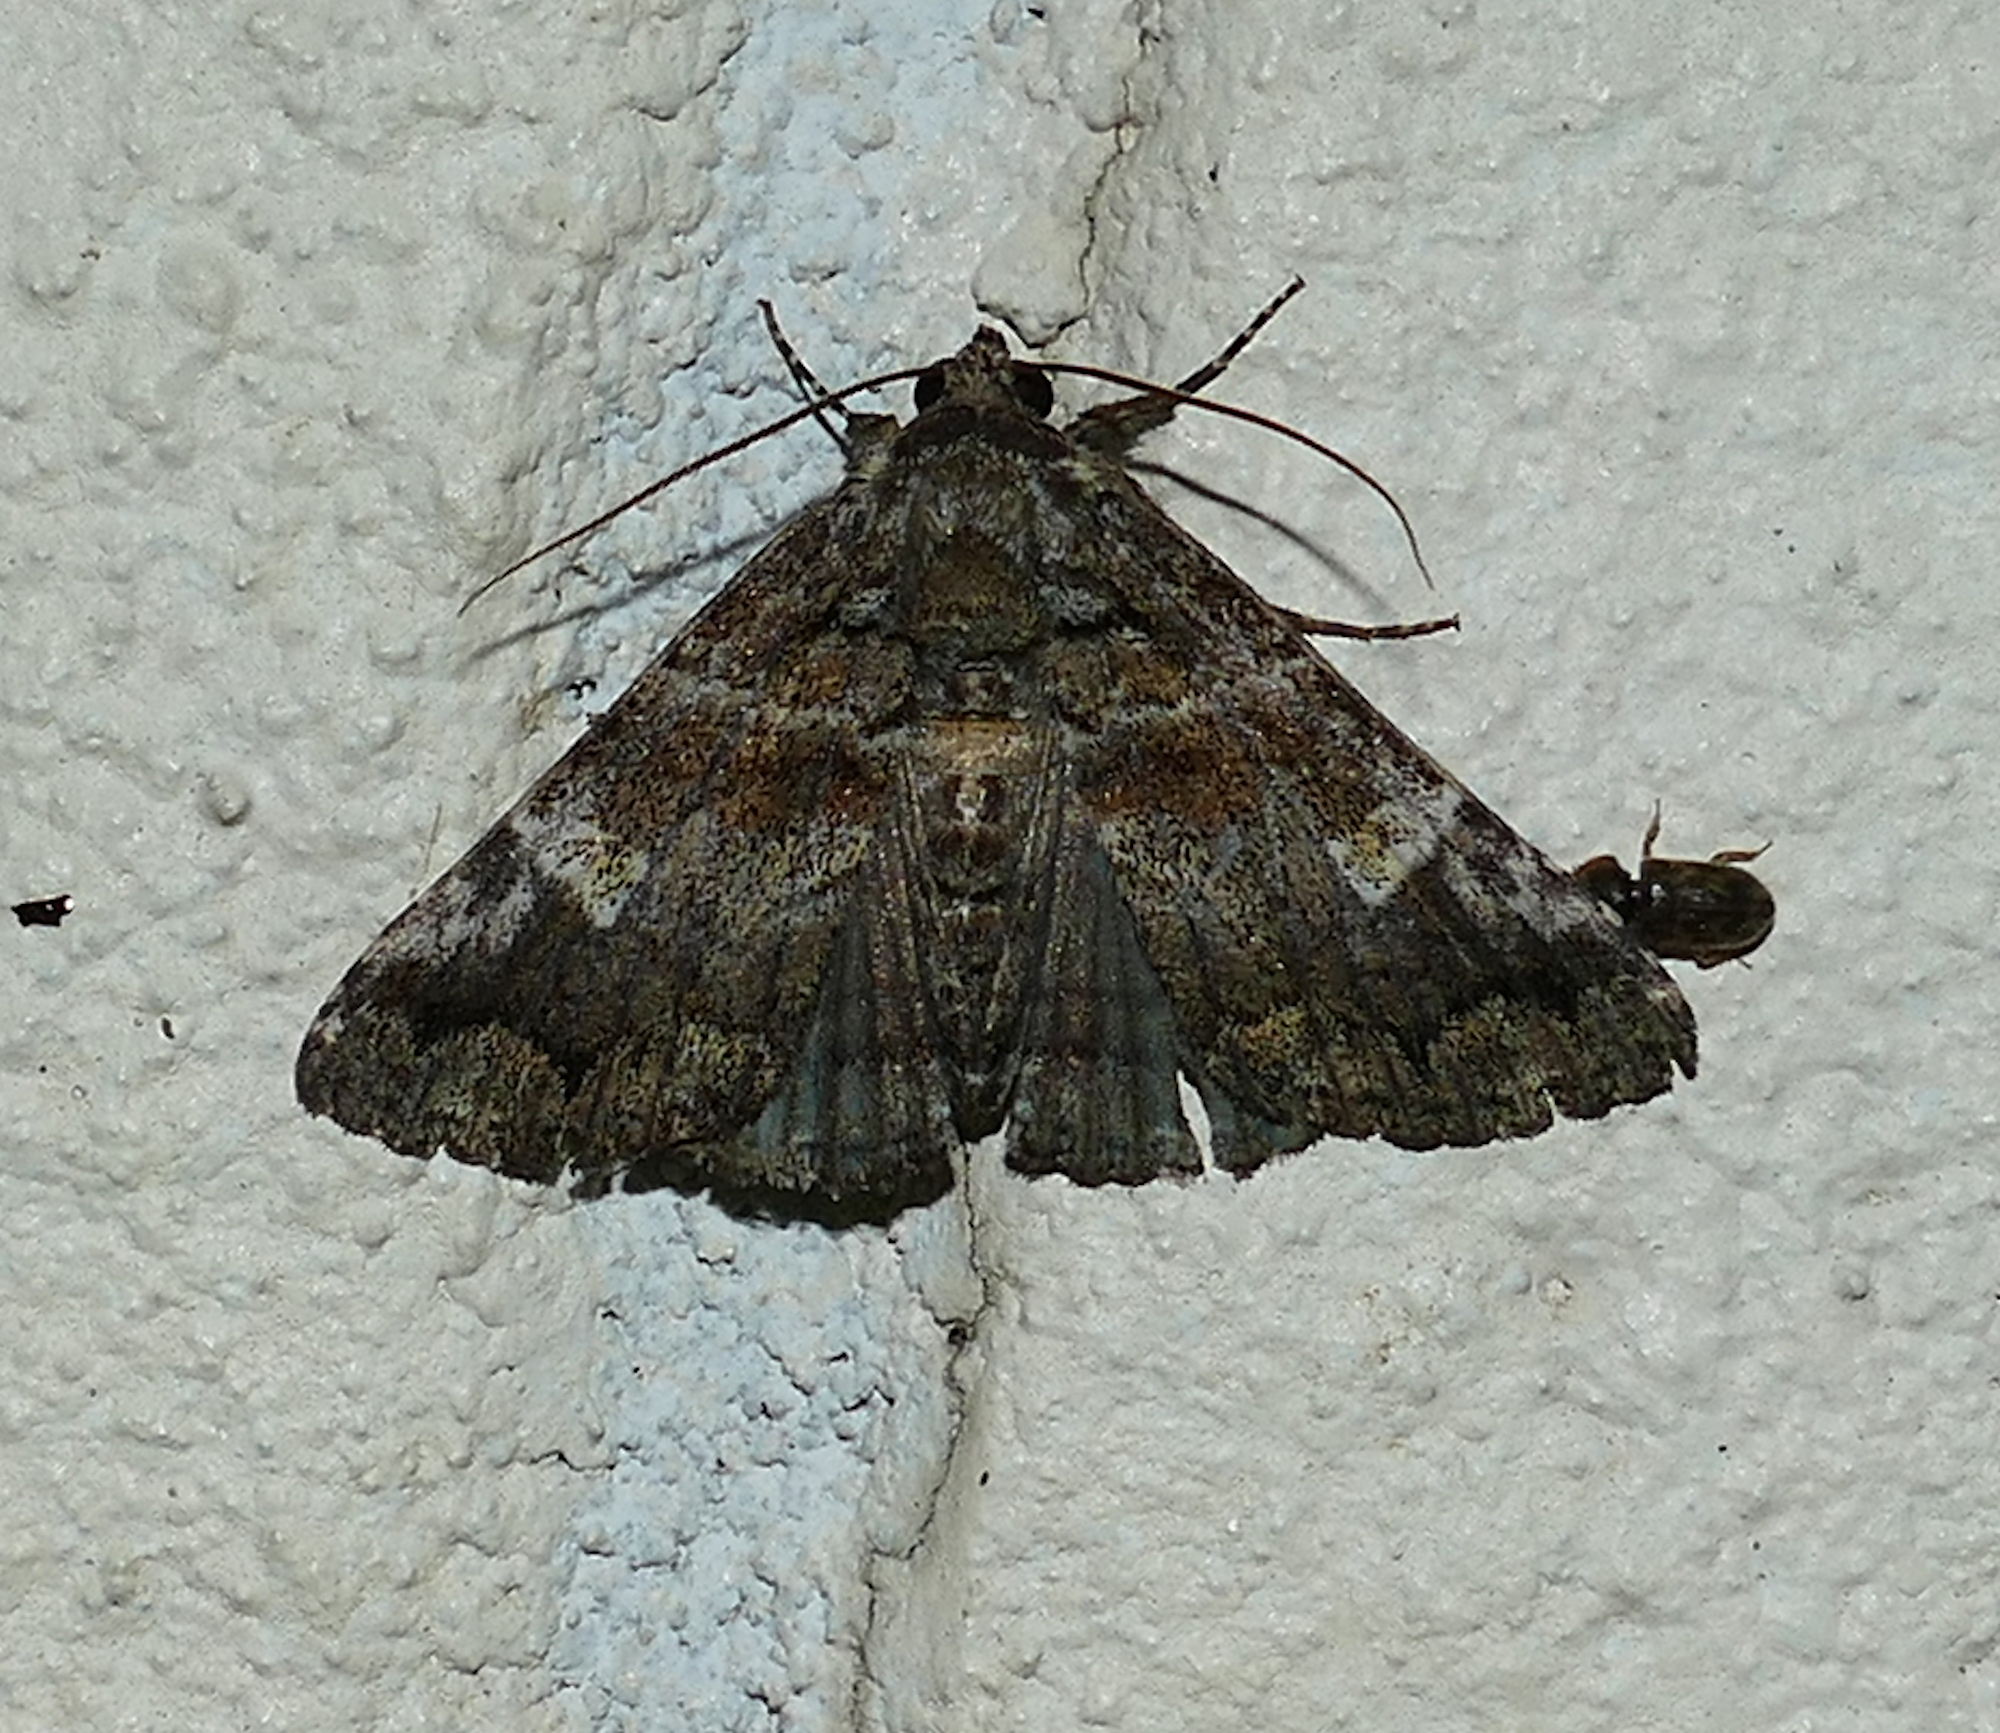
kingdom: Animalia
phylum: Arthropoda
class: Insecta
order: Lepidoptera
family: Erebidae
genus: Metria
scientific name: Metria amella
